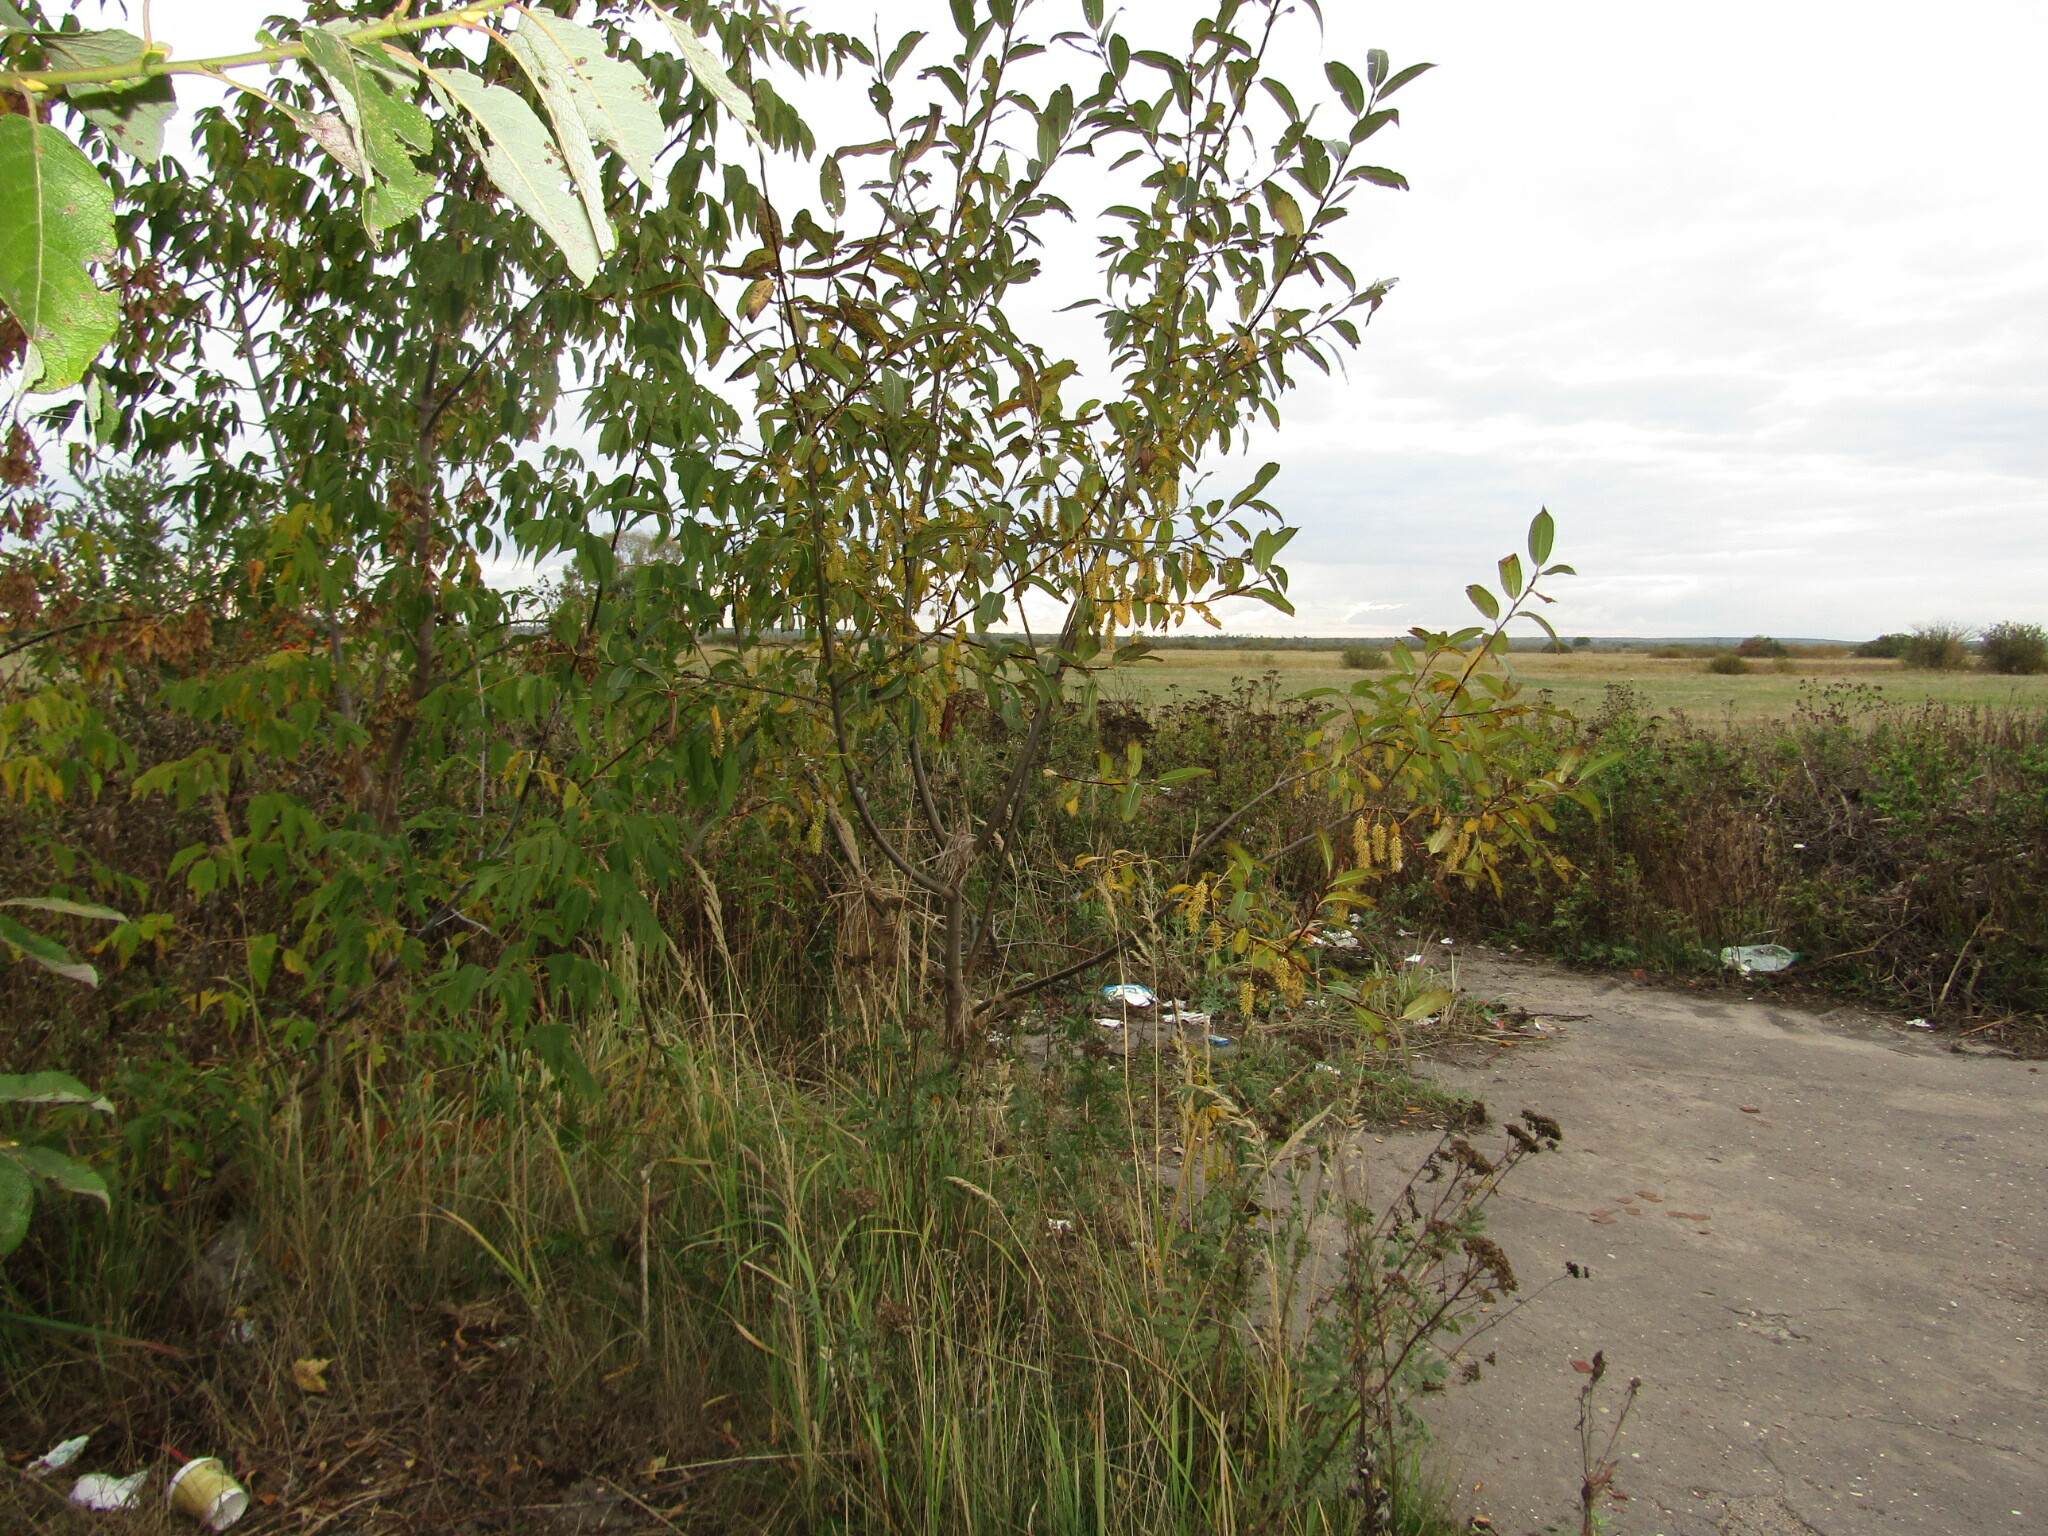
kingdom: Plantae
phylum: Tracheophyta
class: Magnoliopsida
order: Malpighiales
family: Salicaceae
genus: Salix
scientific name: Salix pentandra
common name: Bay willow
